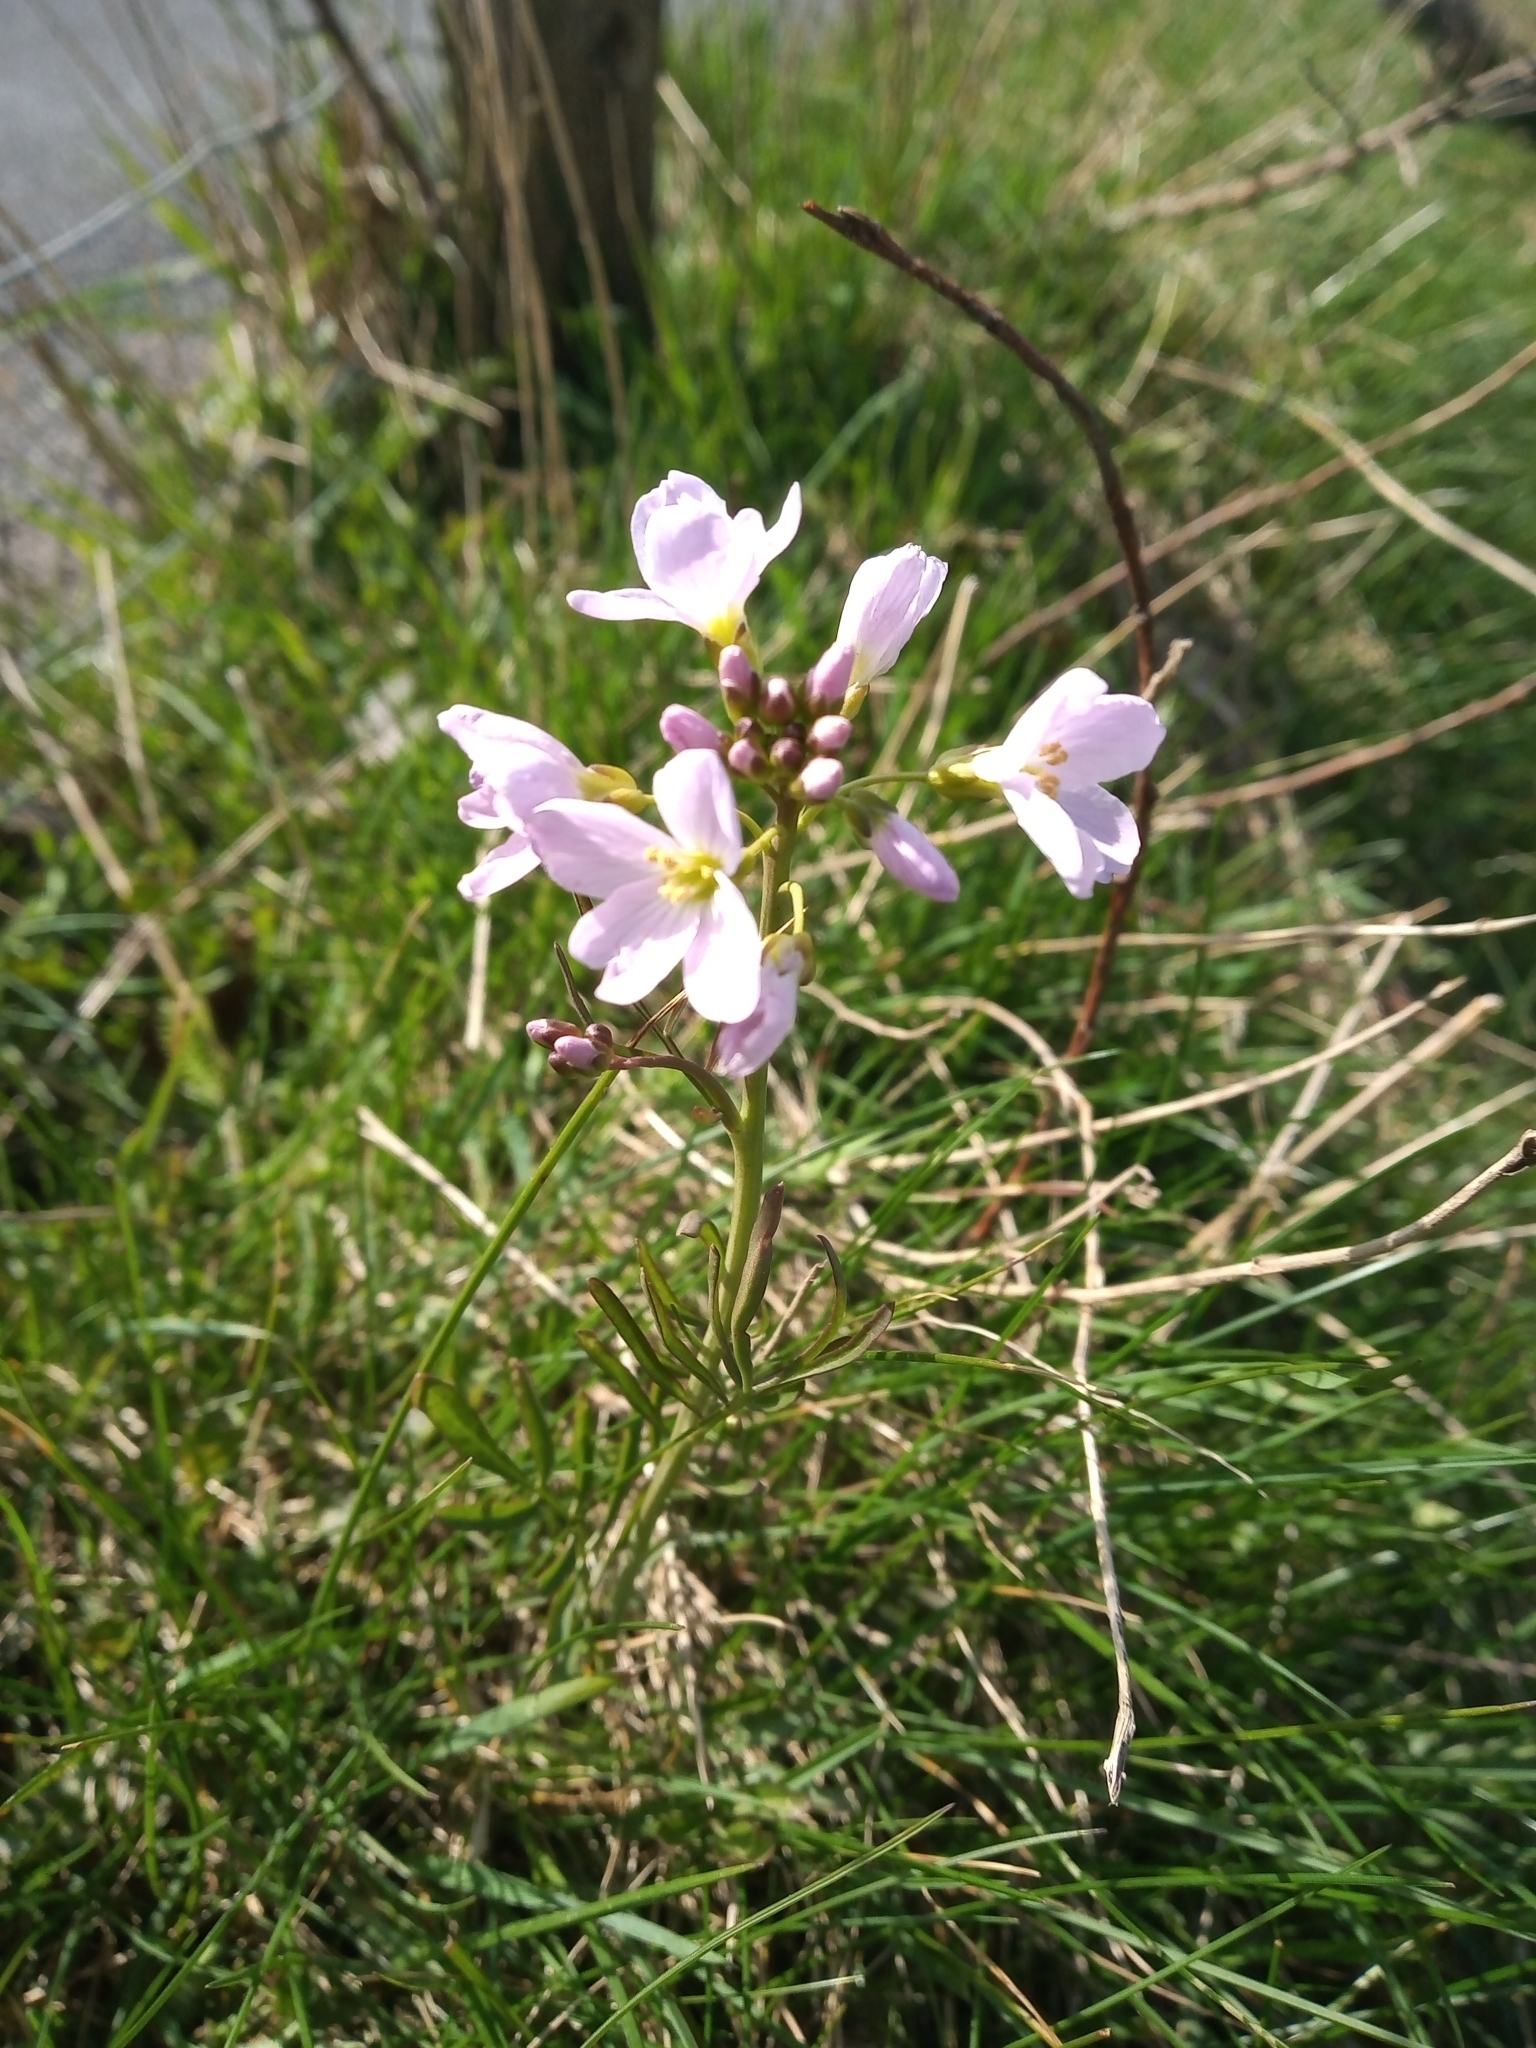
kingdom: Plantae
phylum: Tracheophyta
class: Magnoliopsida
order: Brassicales
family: Brassicaceae
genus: Cardamine
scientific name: Cardamine pratensis
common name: Cuckoo flower
